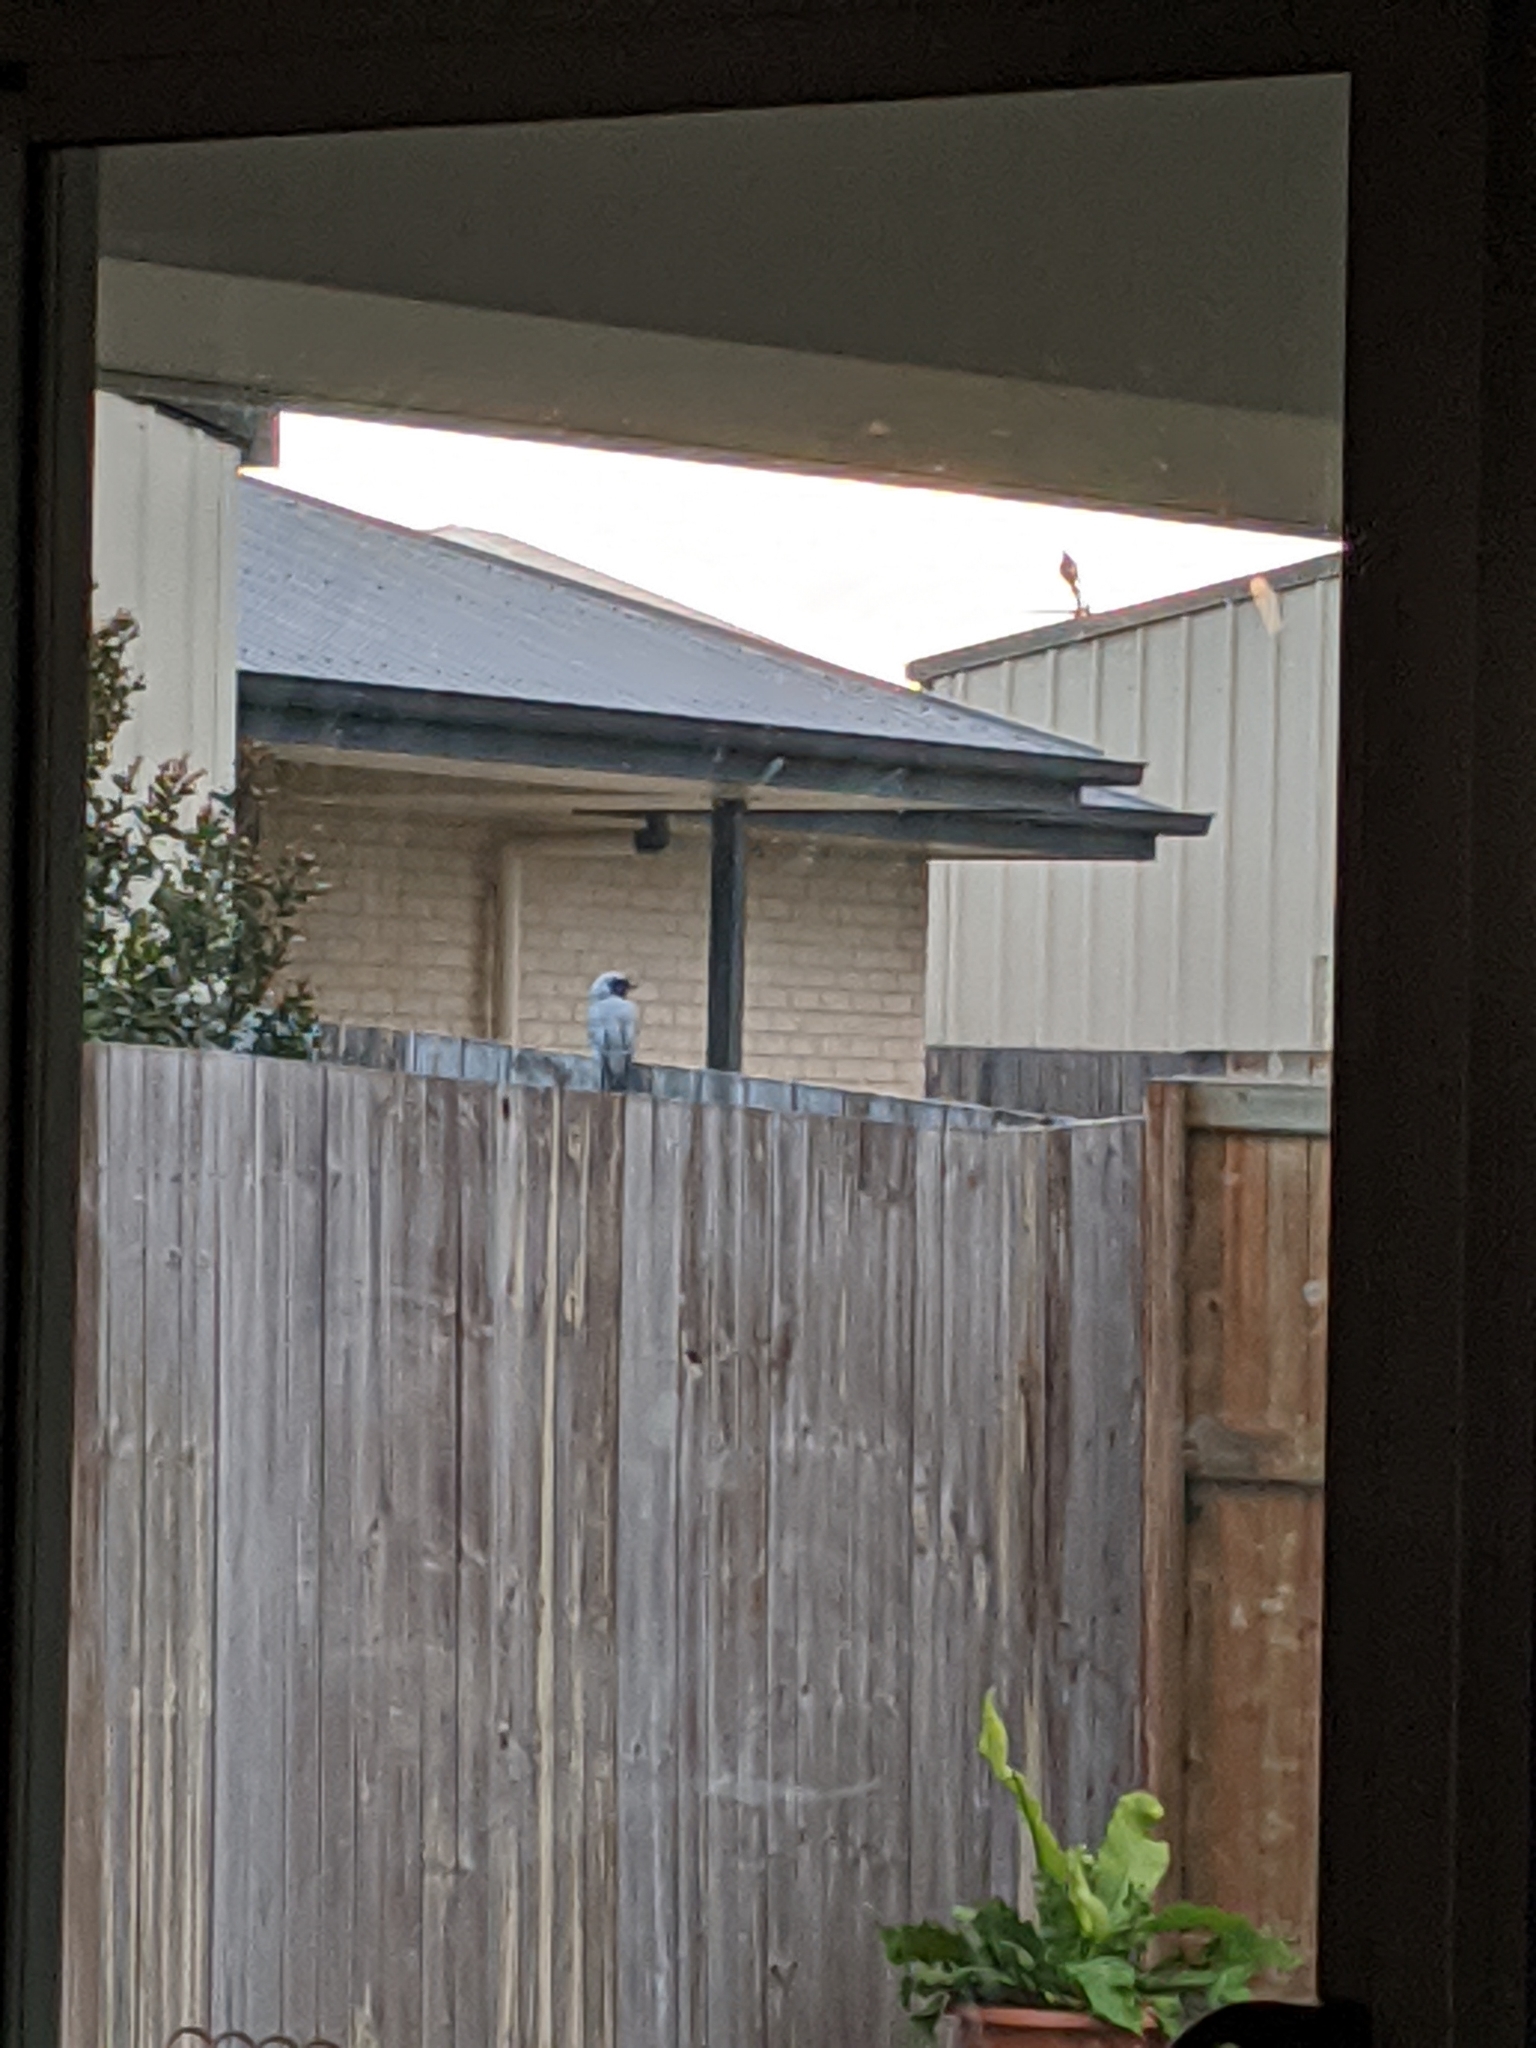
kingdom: Animalia
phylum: Chordata
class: Aves
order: Passeriformes
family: Campephagidae
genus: Coracina
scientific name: Coracina novaehollandiae
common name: Black-faced cuckooshrike
